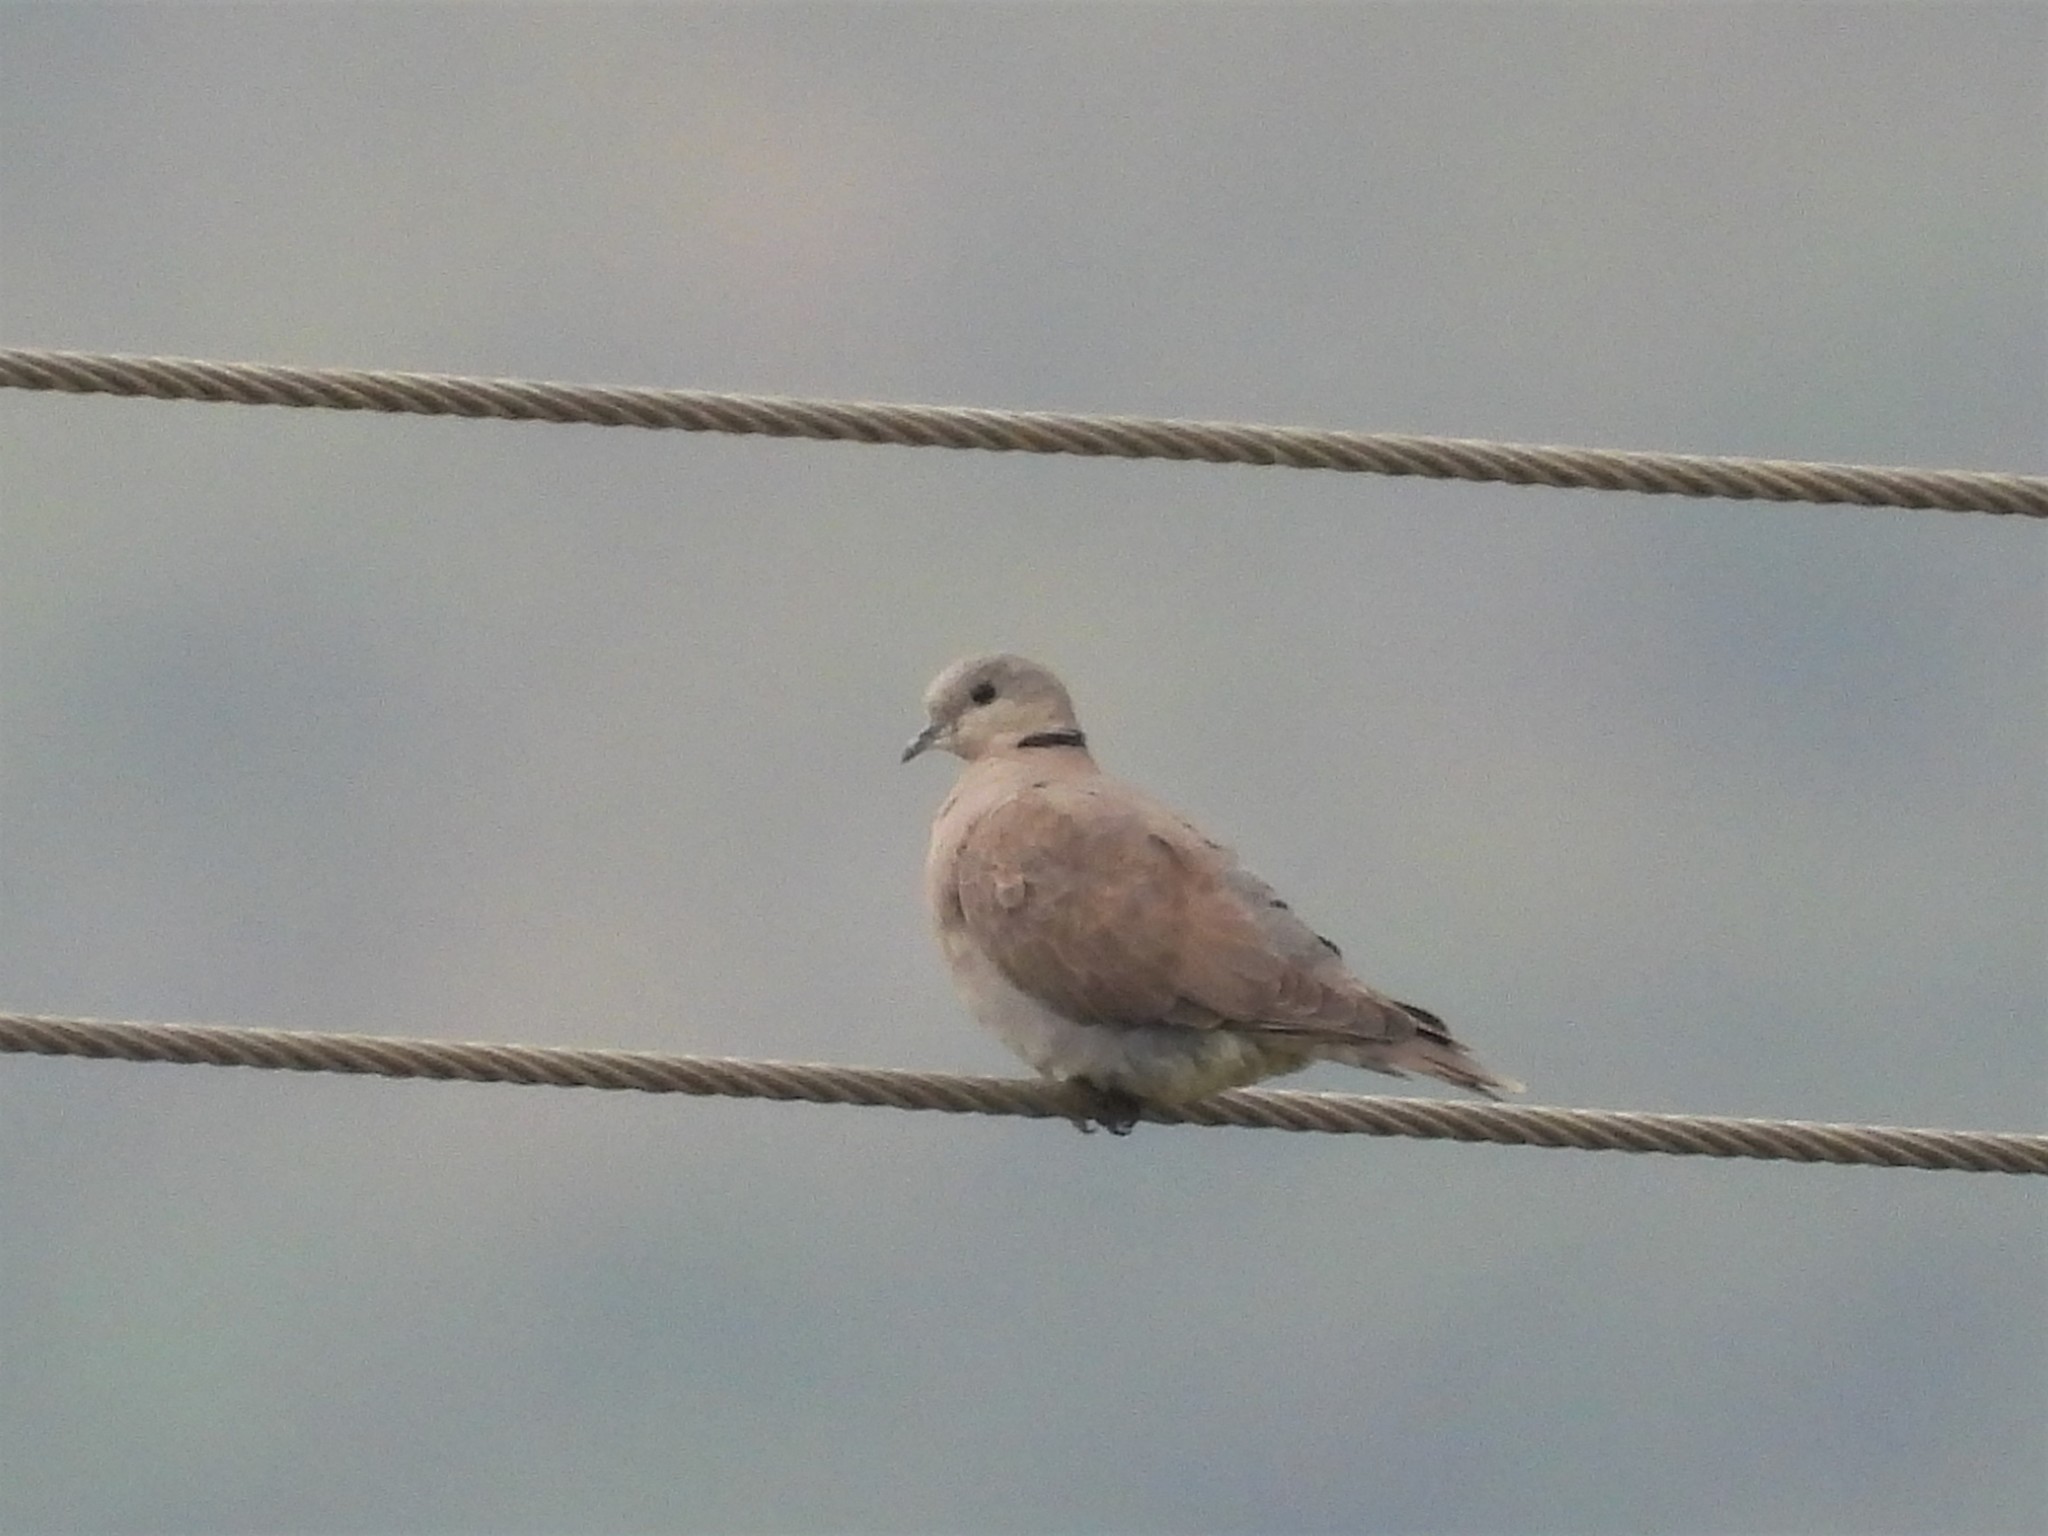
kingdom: Animalia
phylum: Chordata
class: Aves
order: Columbiformes
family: Columbidae
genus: Streptopelia
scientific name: Streptopelia tranquebarica
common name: Red turtle dove
